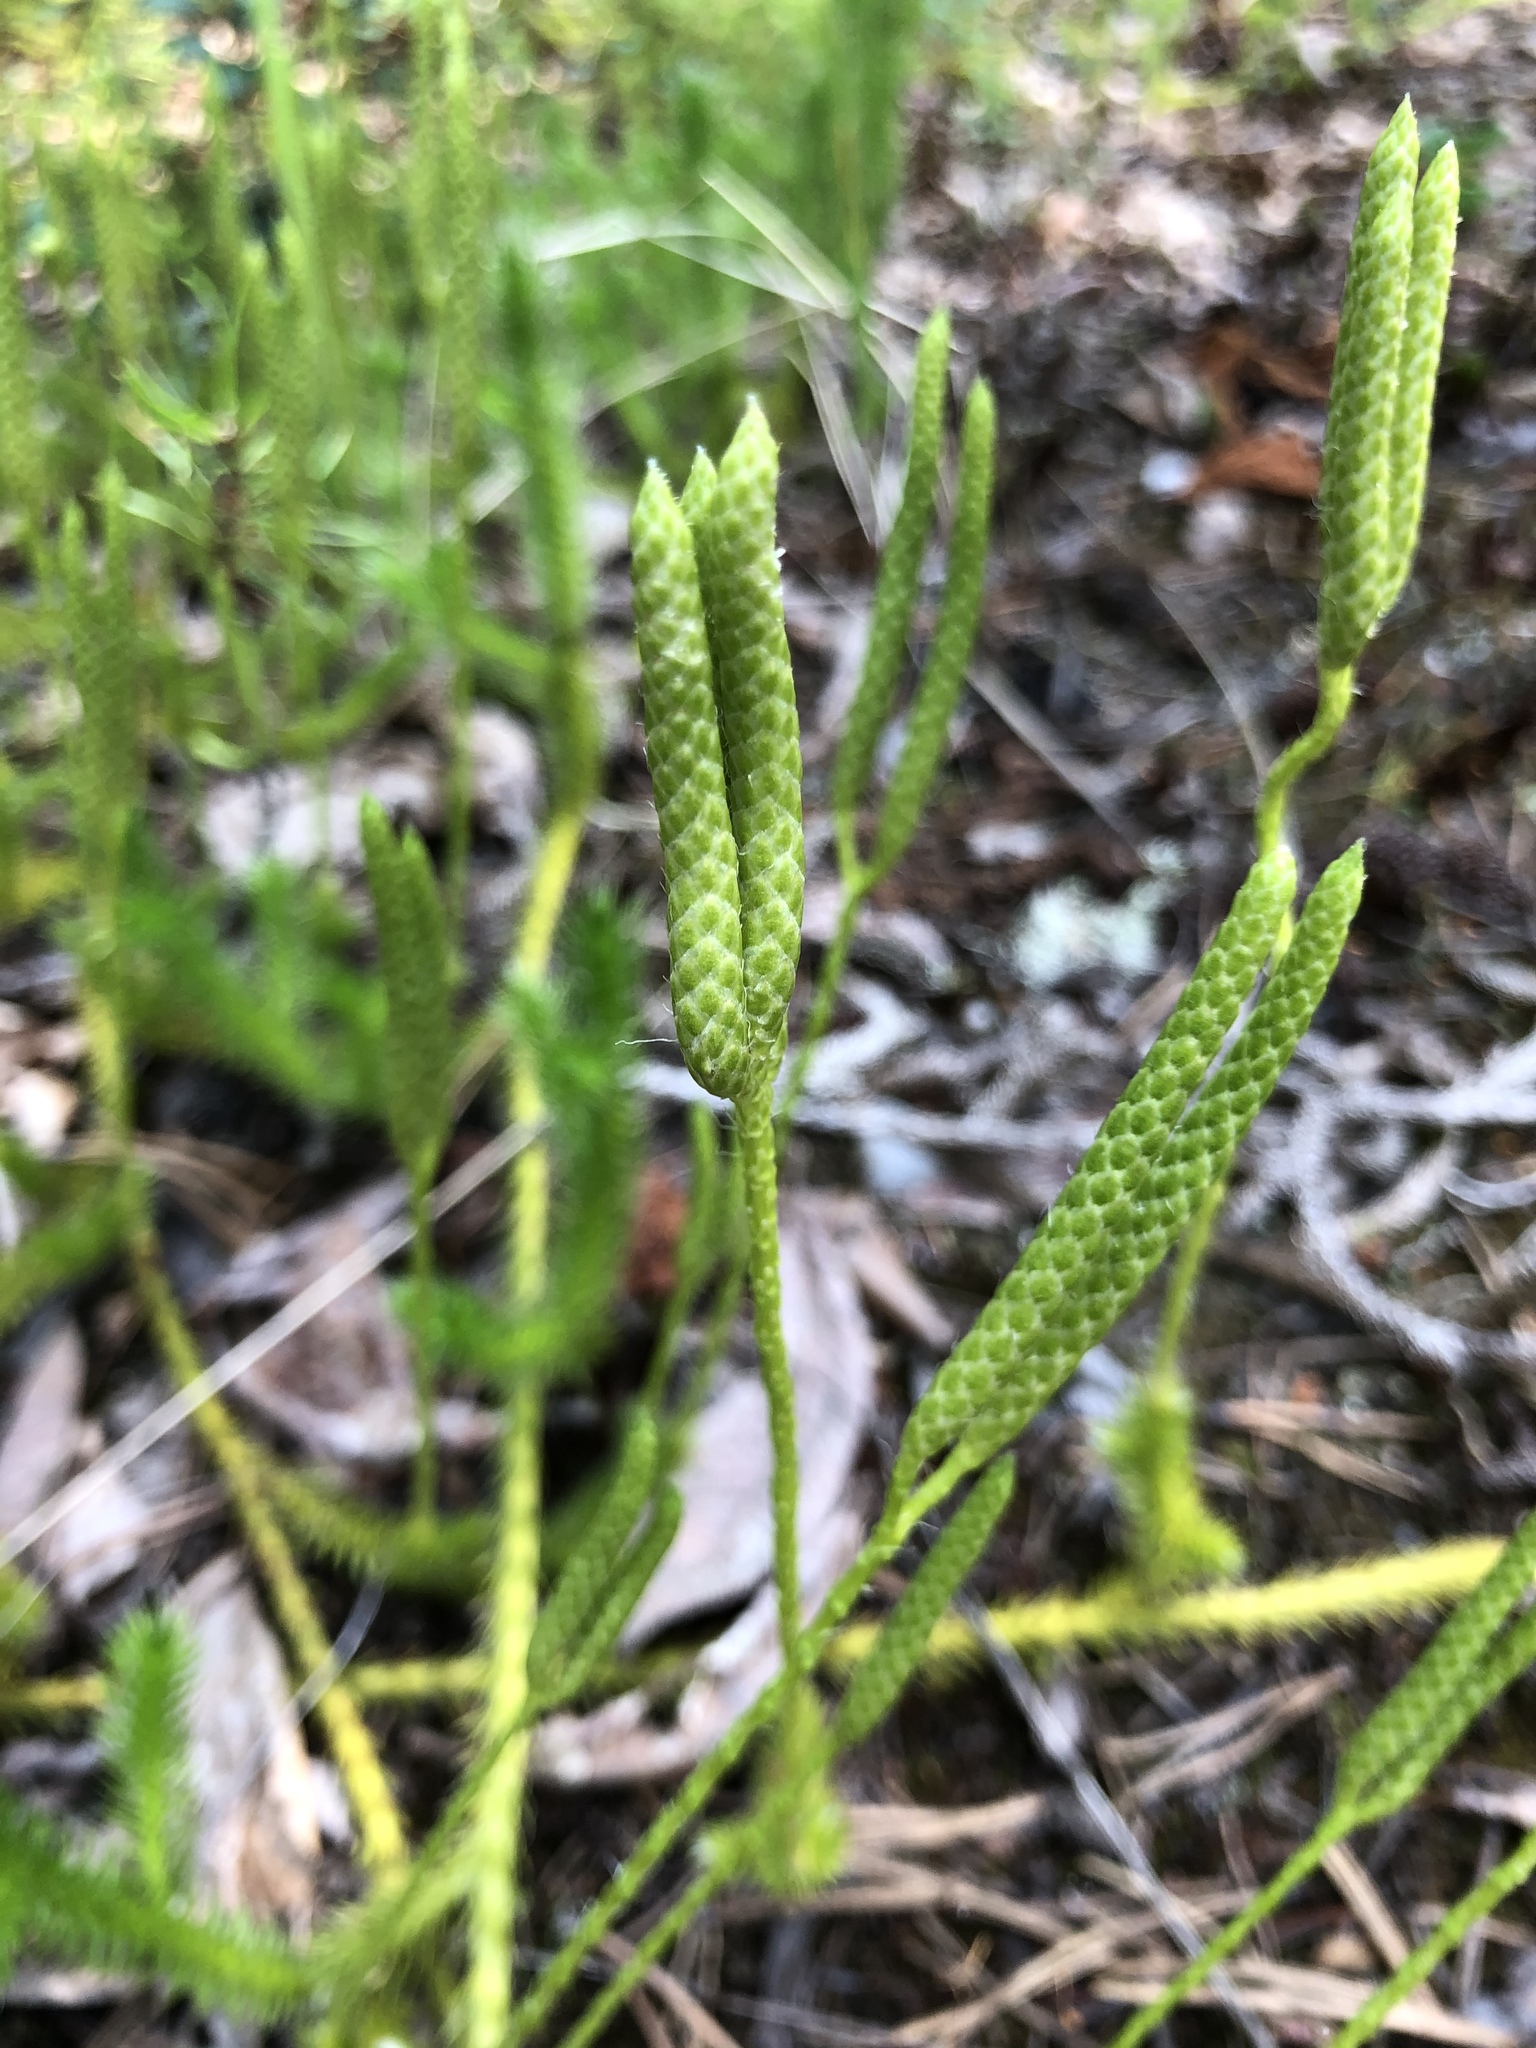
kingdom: Plantae
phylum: Tracheophyta
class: Lycopodiopsida
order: Lycopodiales
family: Lycopodiaceae
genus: Lycopodium
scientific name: Lycopodium clavatum
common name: Stag's-horn clubmoss
